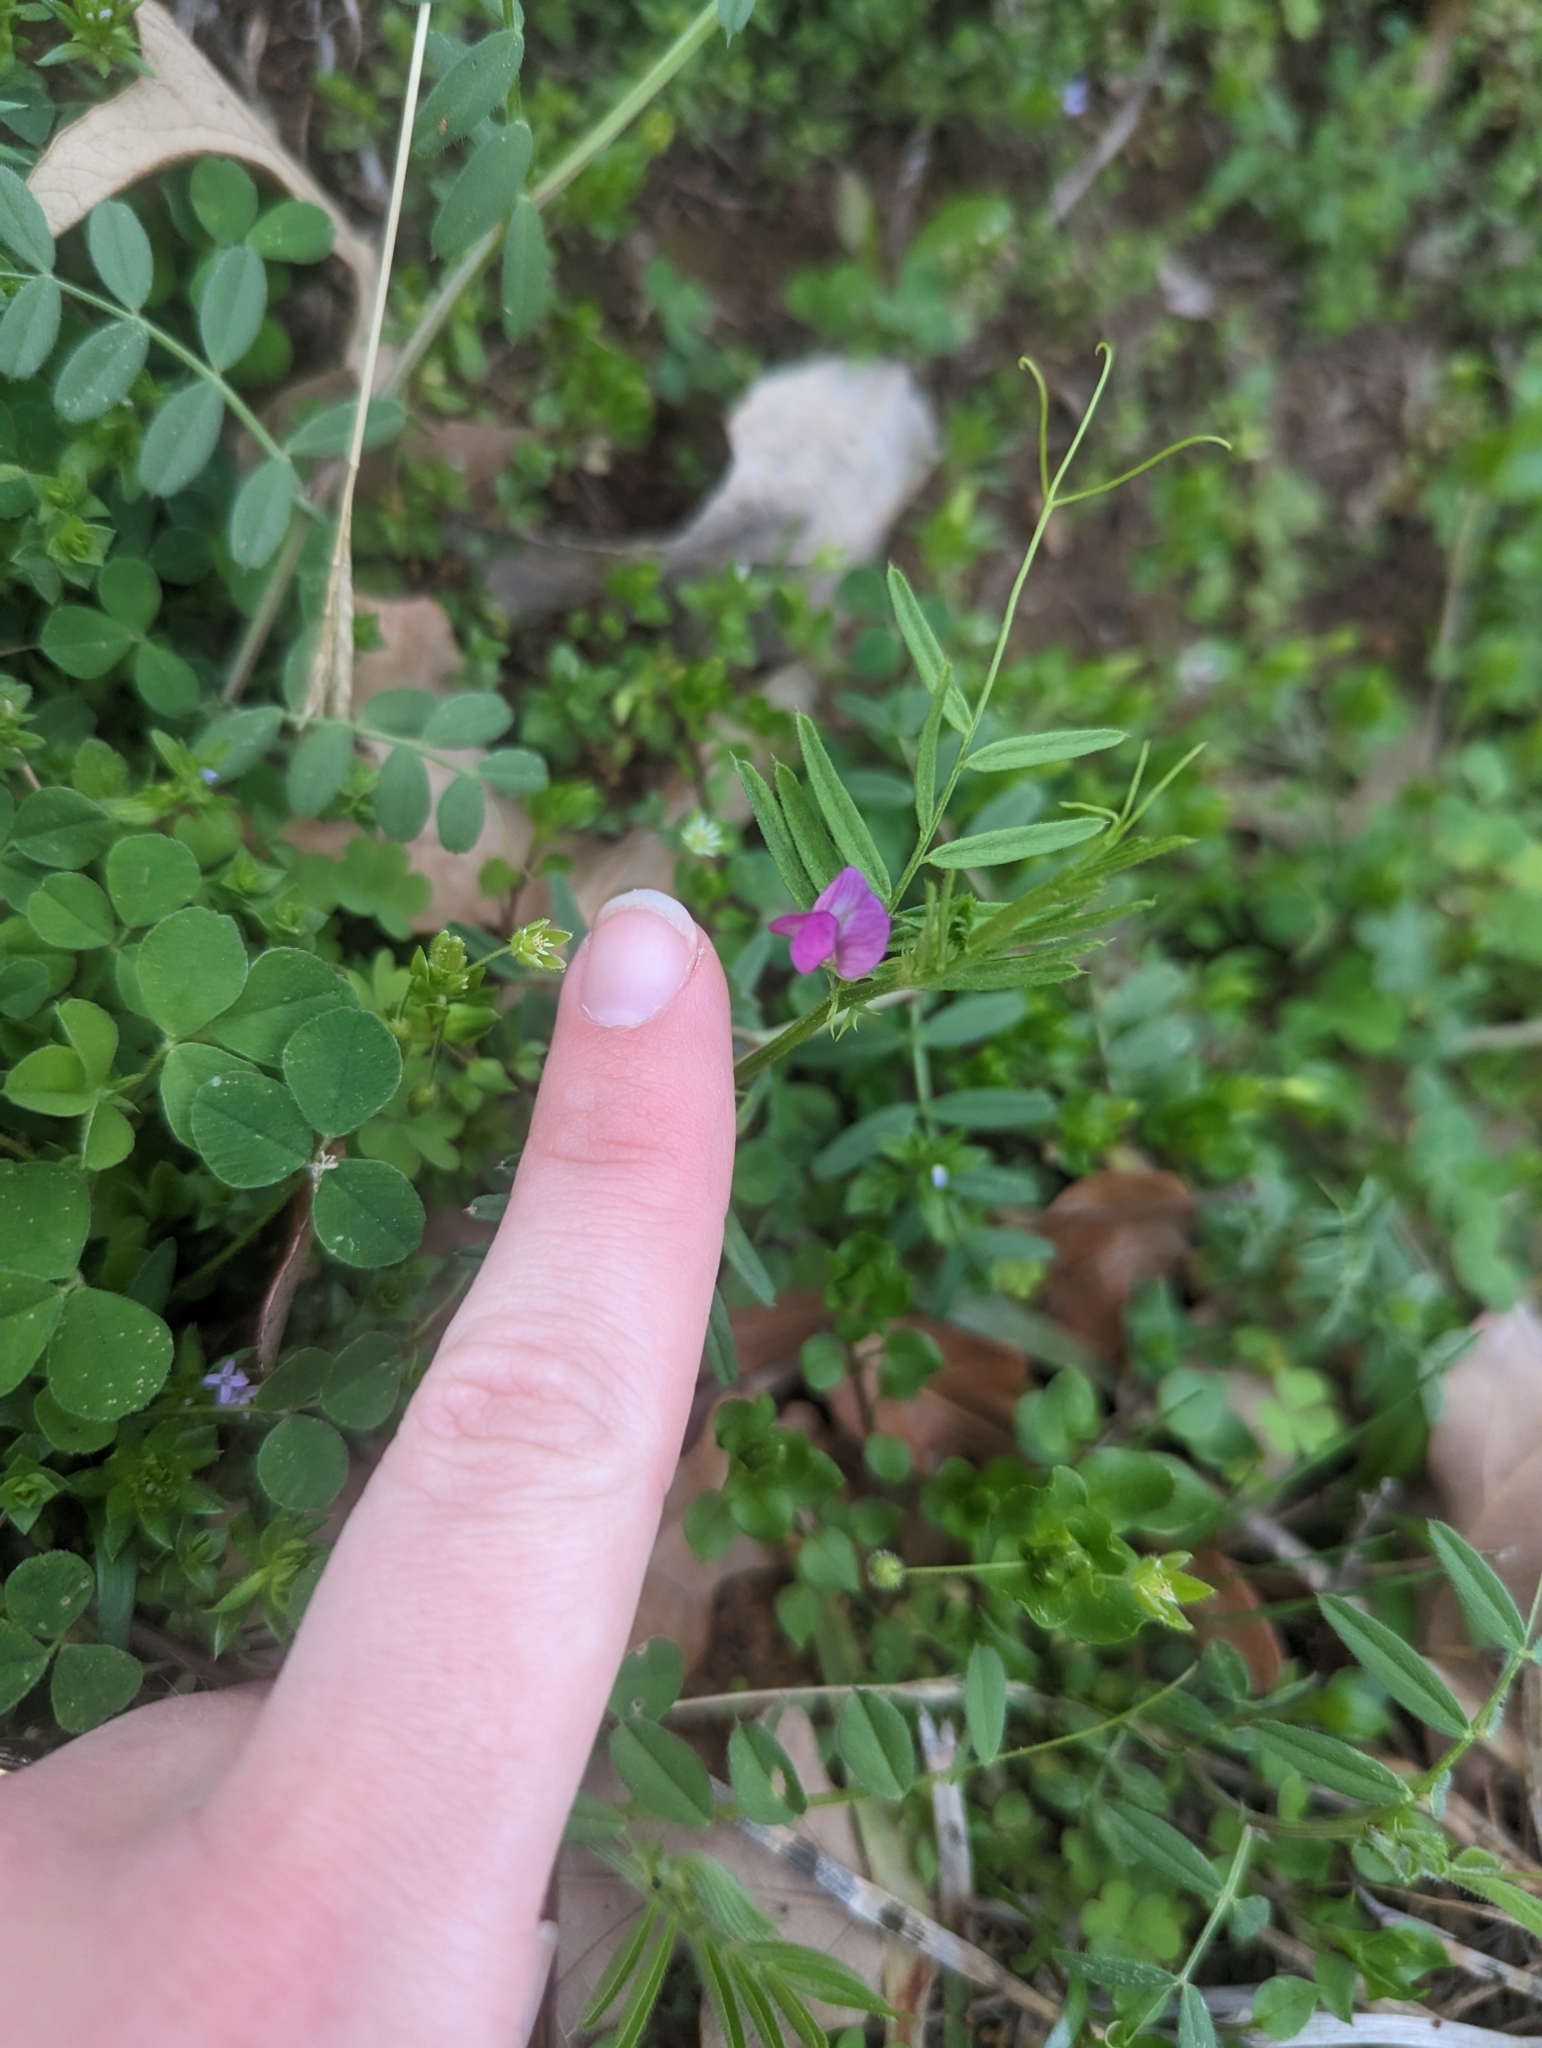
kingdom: Plantae
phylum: Tracheophyta
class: Magnoliopsida
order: Fabales
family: Fabaceae
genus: Vicia
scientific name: Vicia sativa
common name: Garden vetch
